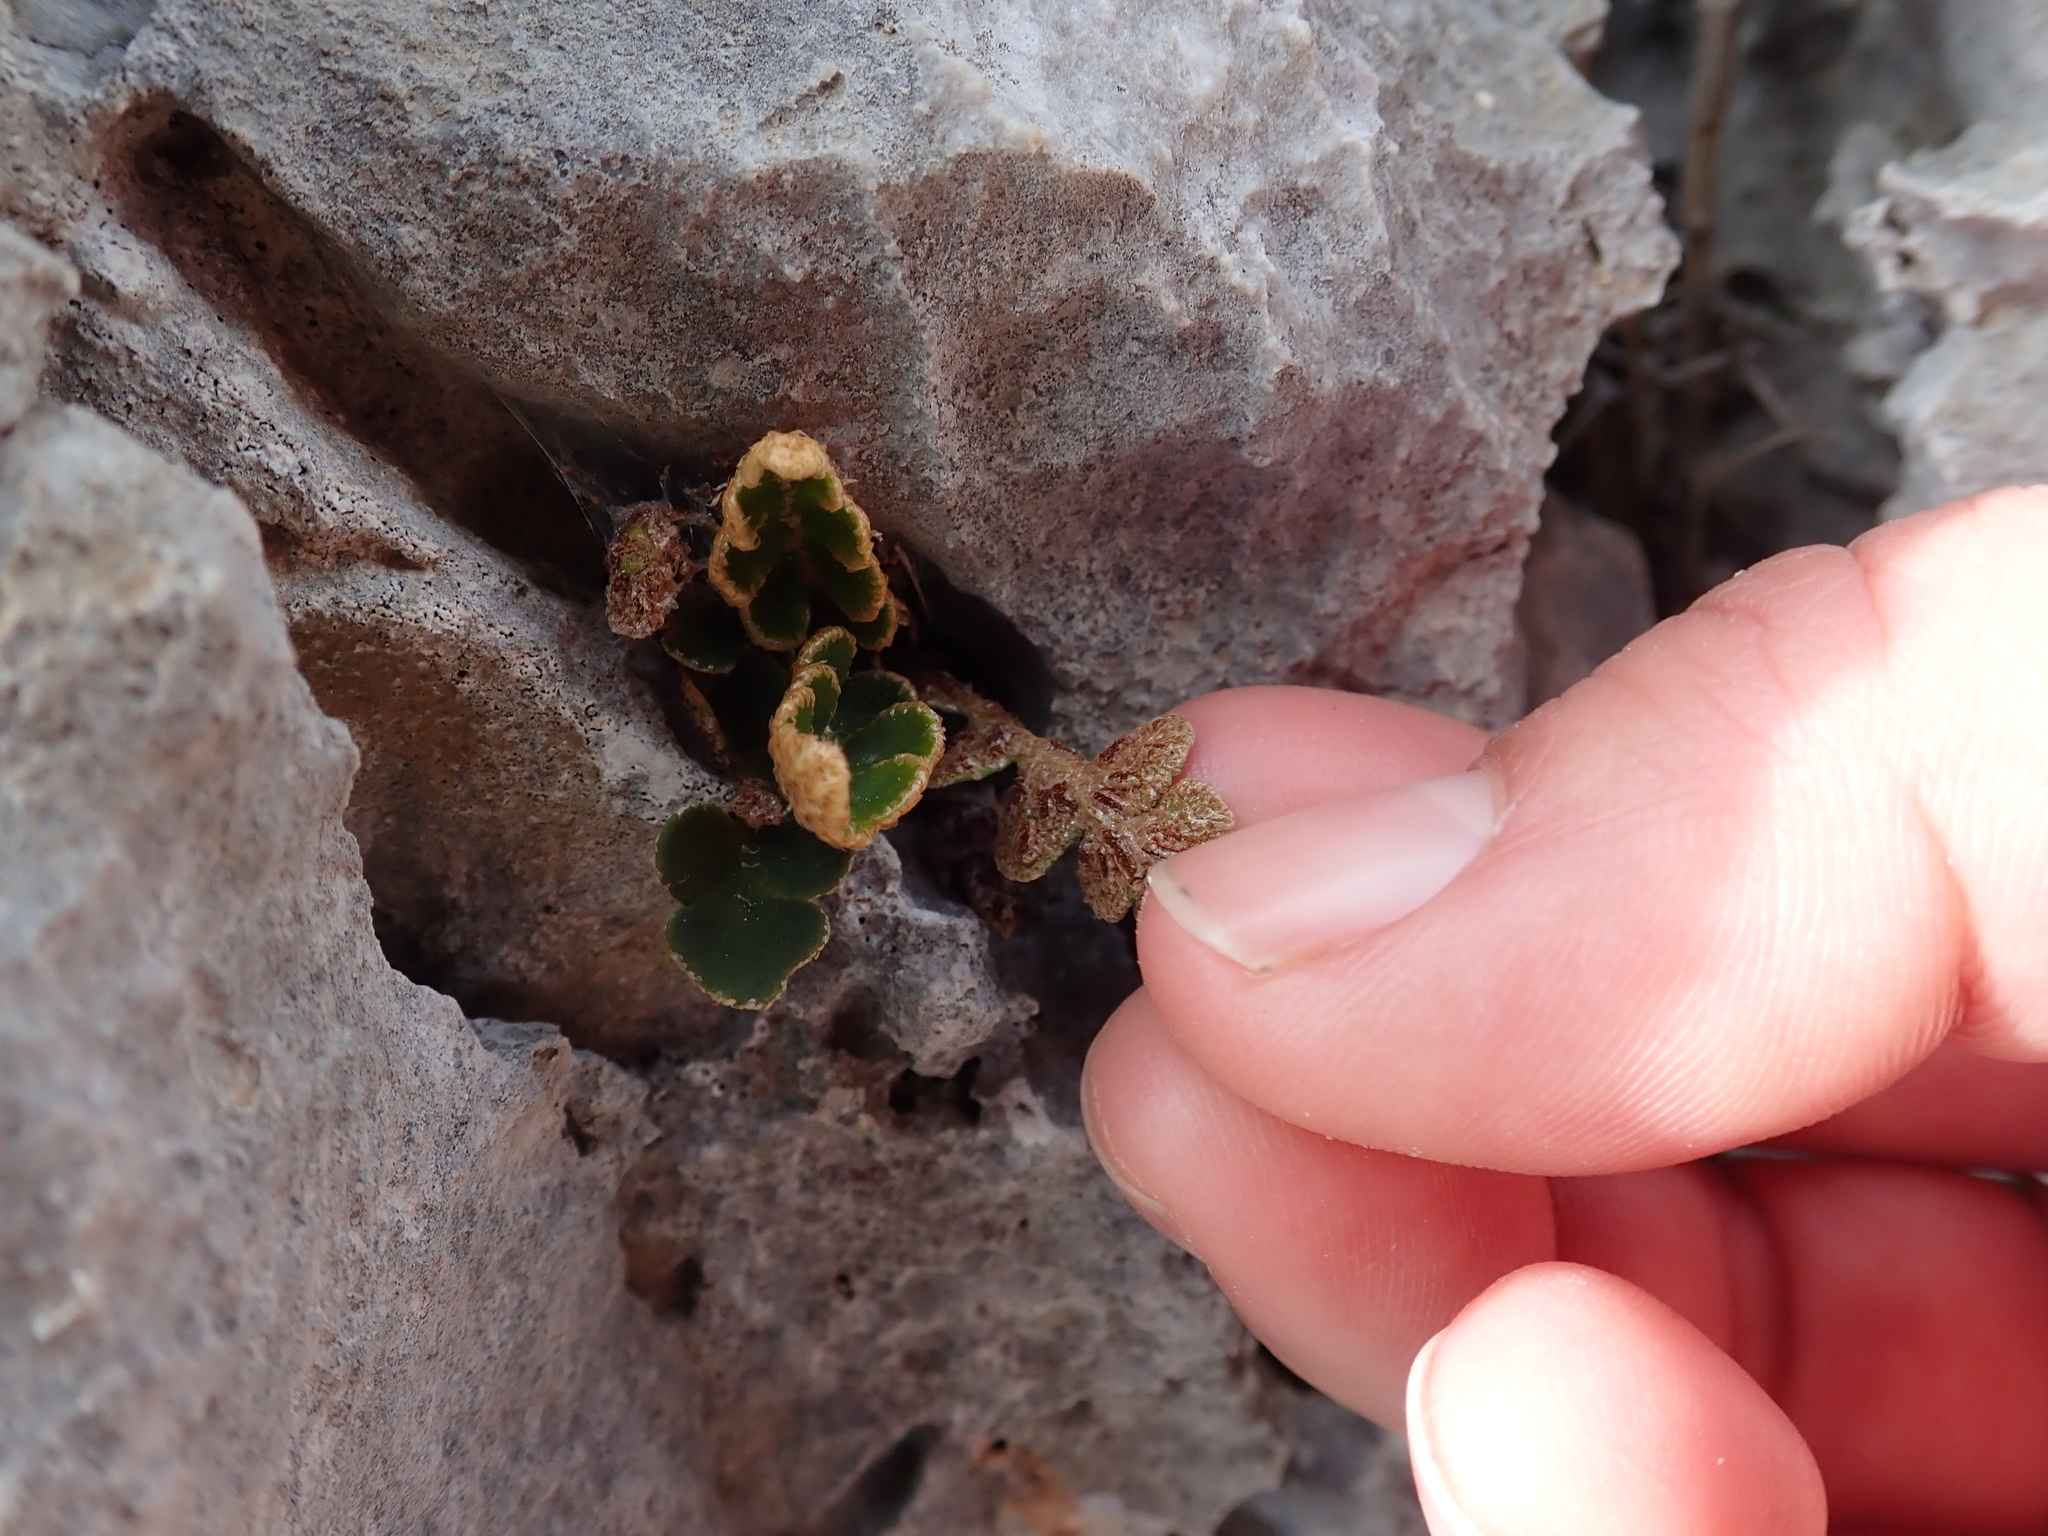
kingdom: Plantae
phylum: Tracheophyta
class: Polypodiopsida
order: Polypodiales
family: Aspleniaceae
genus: Asplenium
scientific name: Asplenium ceterach
